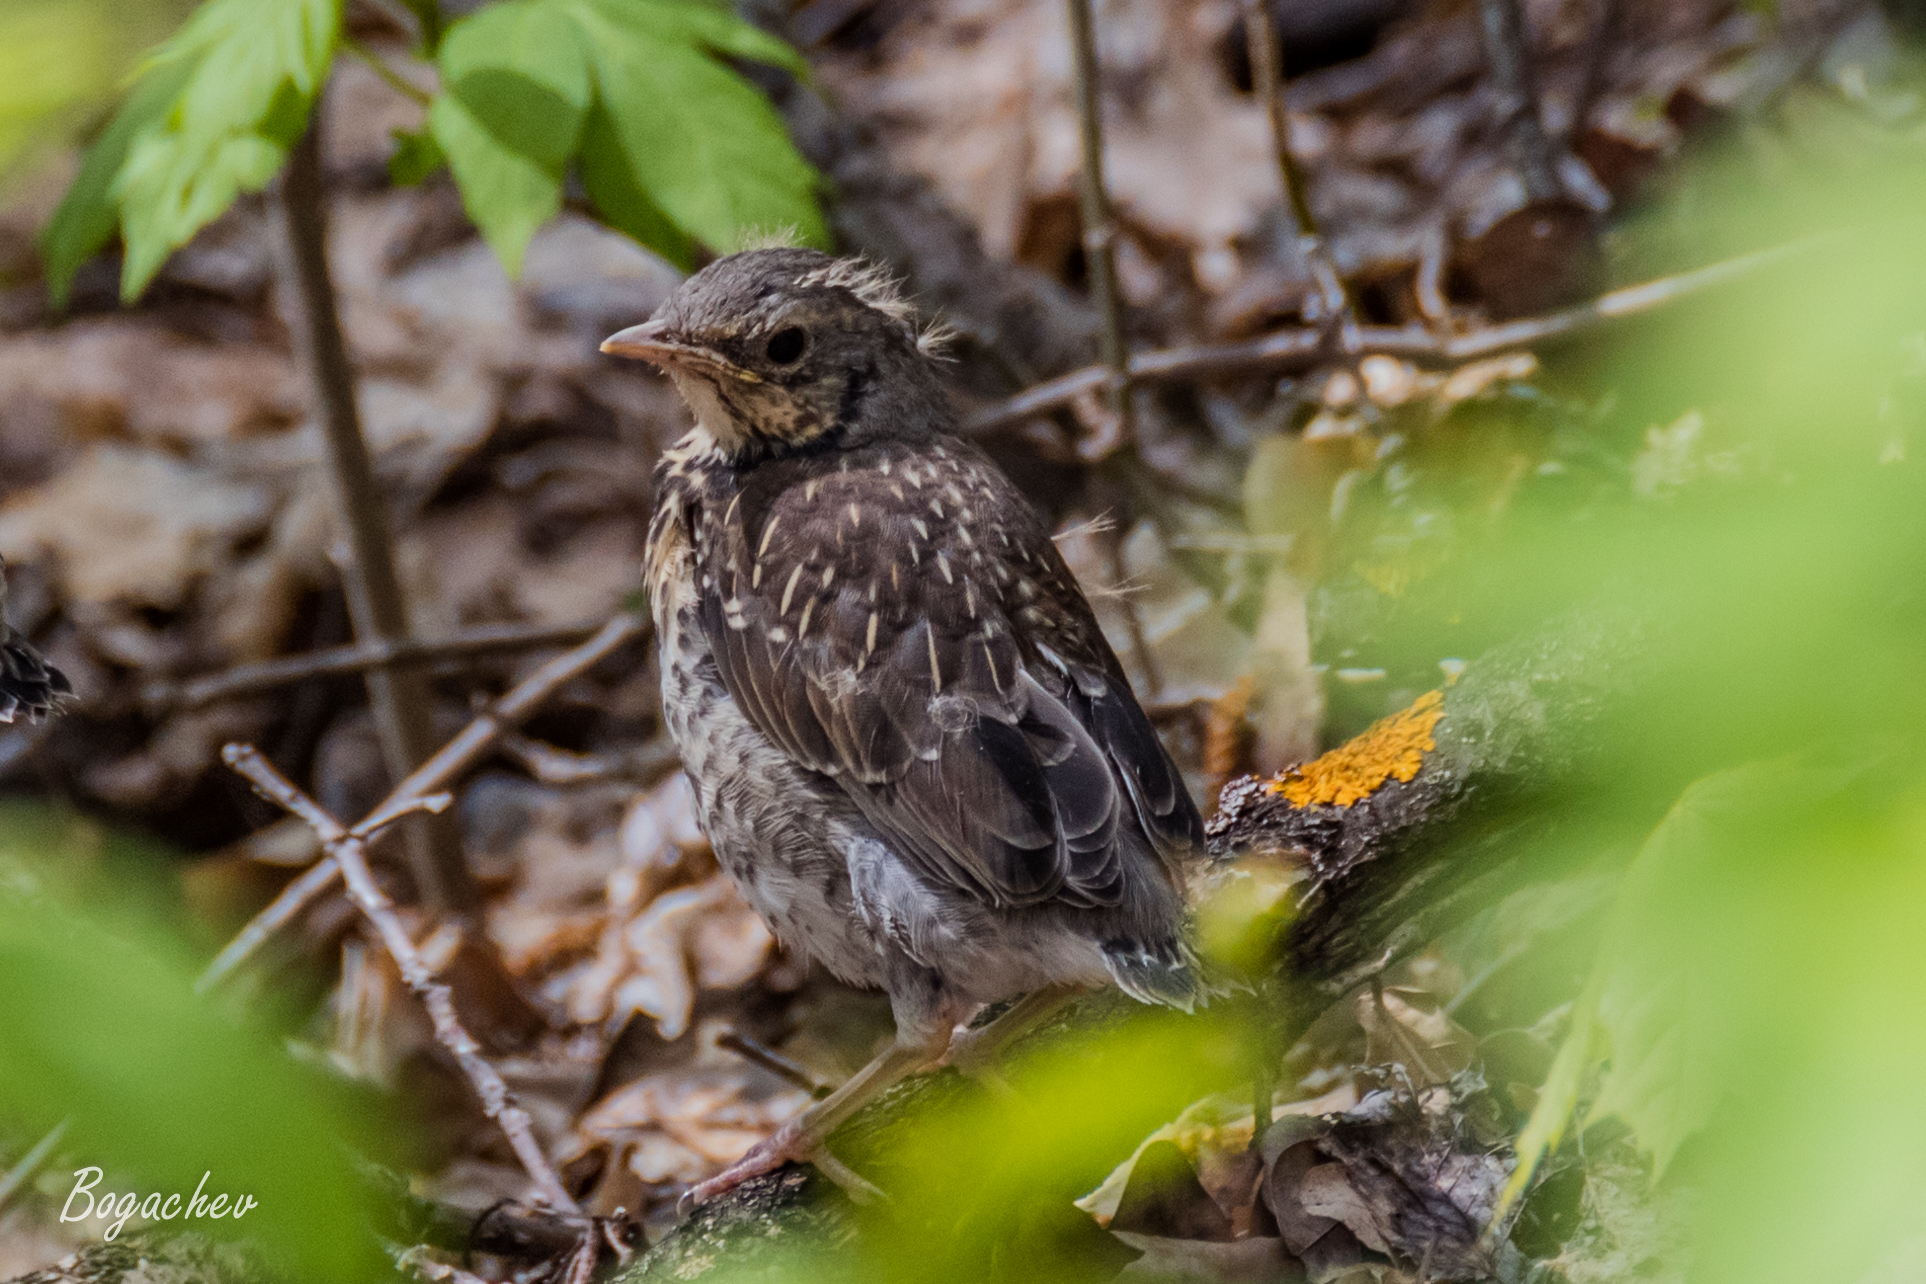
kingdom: Animalia
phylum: Chordata
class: Aves
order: Passeriformes
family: Turdidae
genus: Turdus
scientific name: Turdus pilaris
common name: Fieldfare
